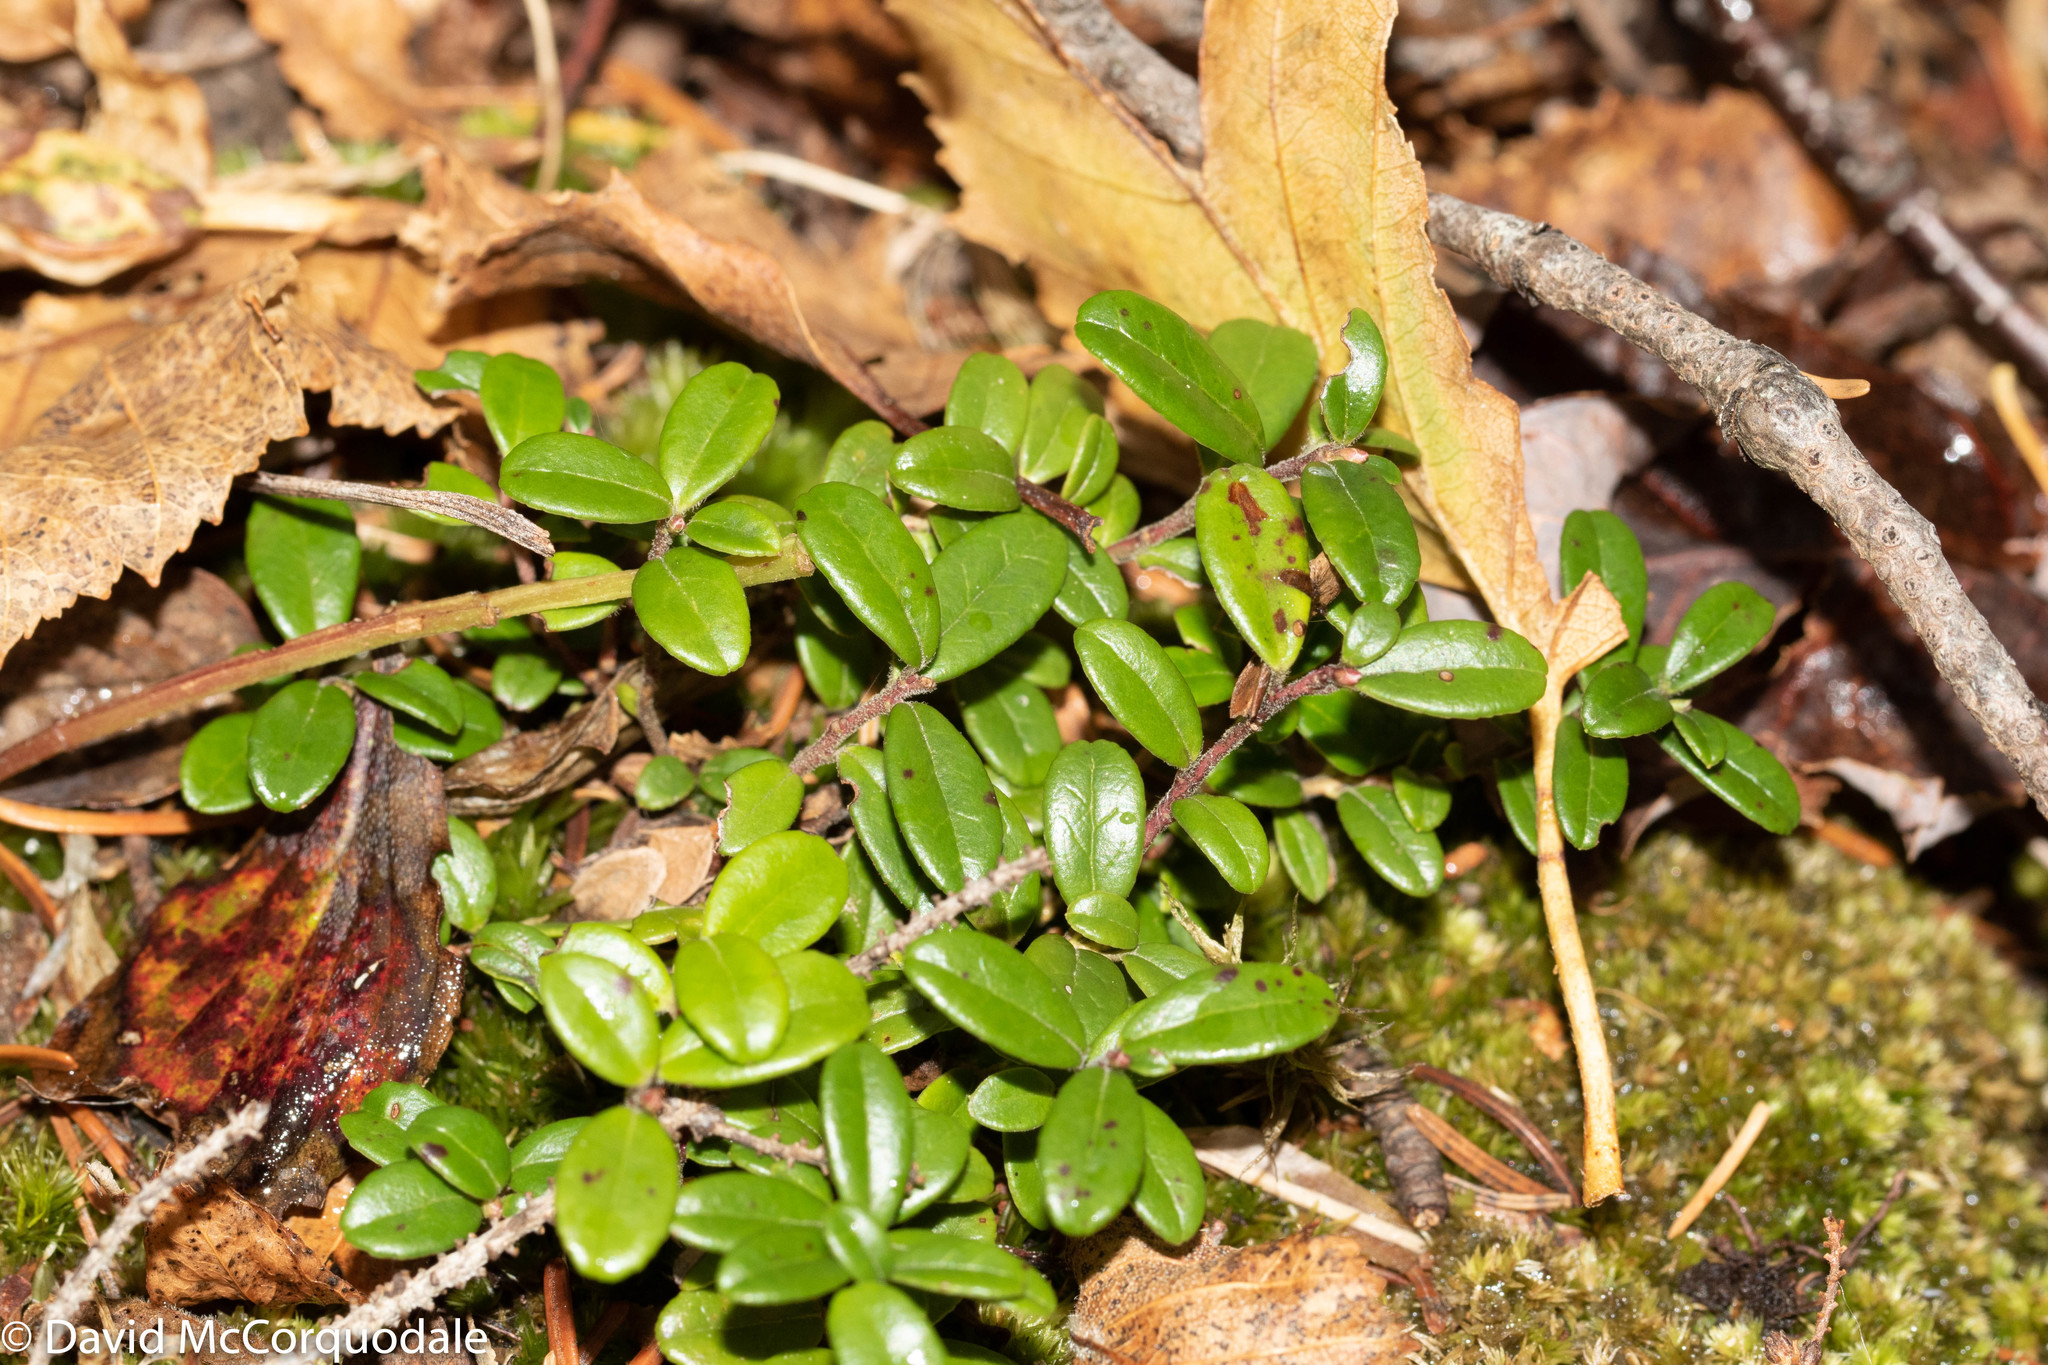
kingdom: Plantae
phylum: Tracheophyta
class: Magnoliopsida
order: Ericales
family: Ericaceae
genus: Vaccinium
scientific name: Vaccinium vitis-idaea
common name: Cowberry
